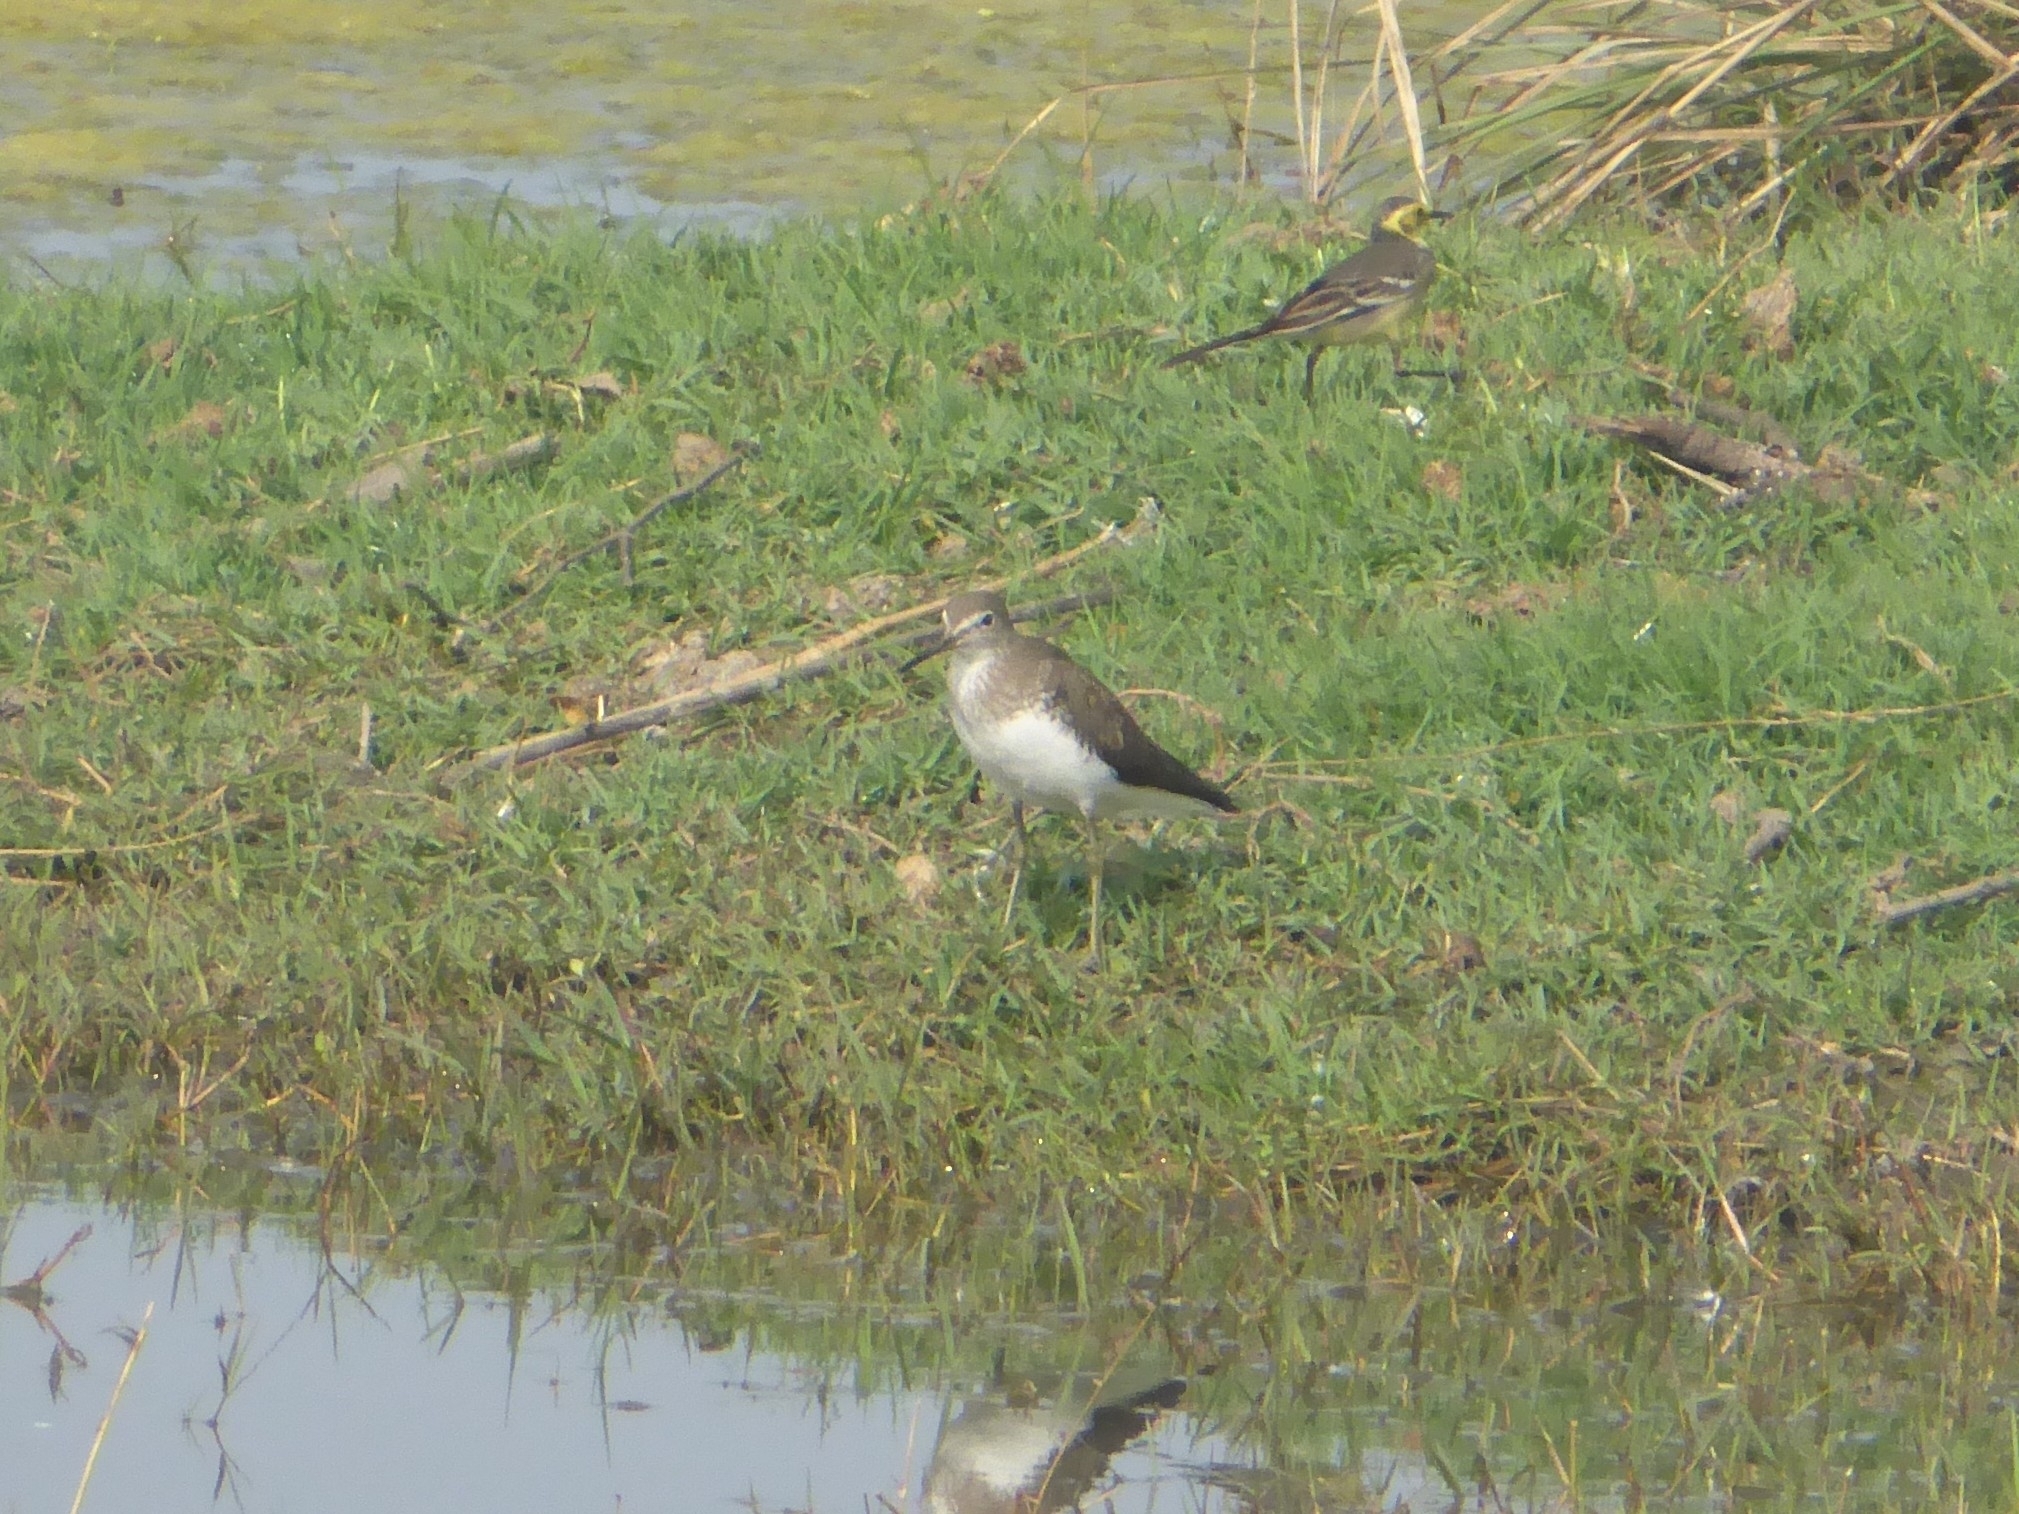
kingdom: Animalia
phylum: Chordata
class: Aves
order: Charadriiformes
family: Scolopacidae
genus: Actitis
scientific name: Actitis hypoleucos
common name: Common sandpiper
